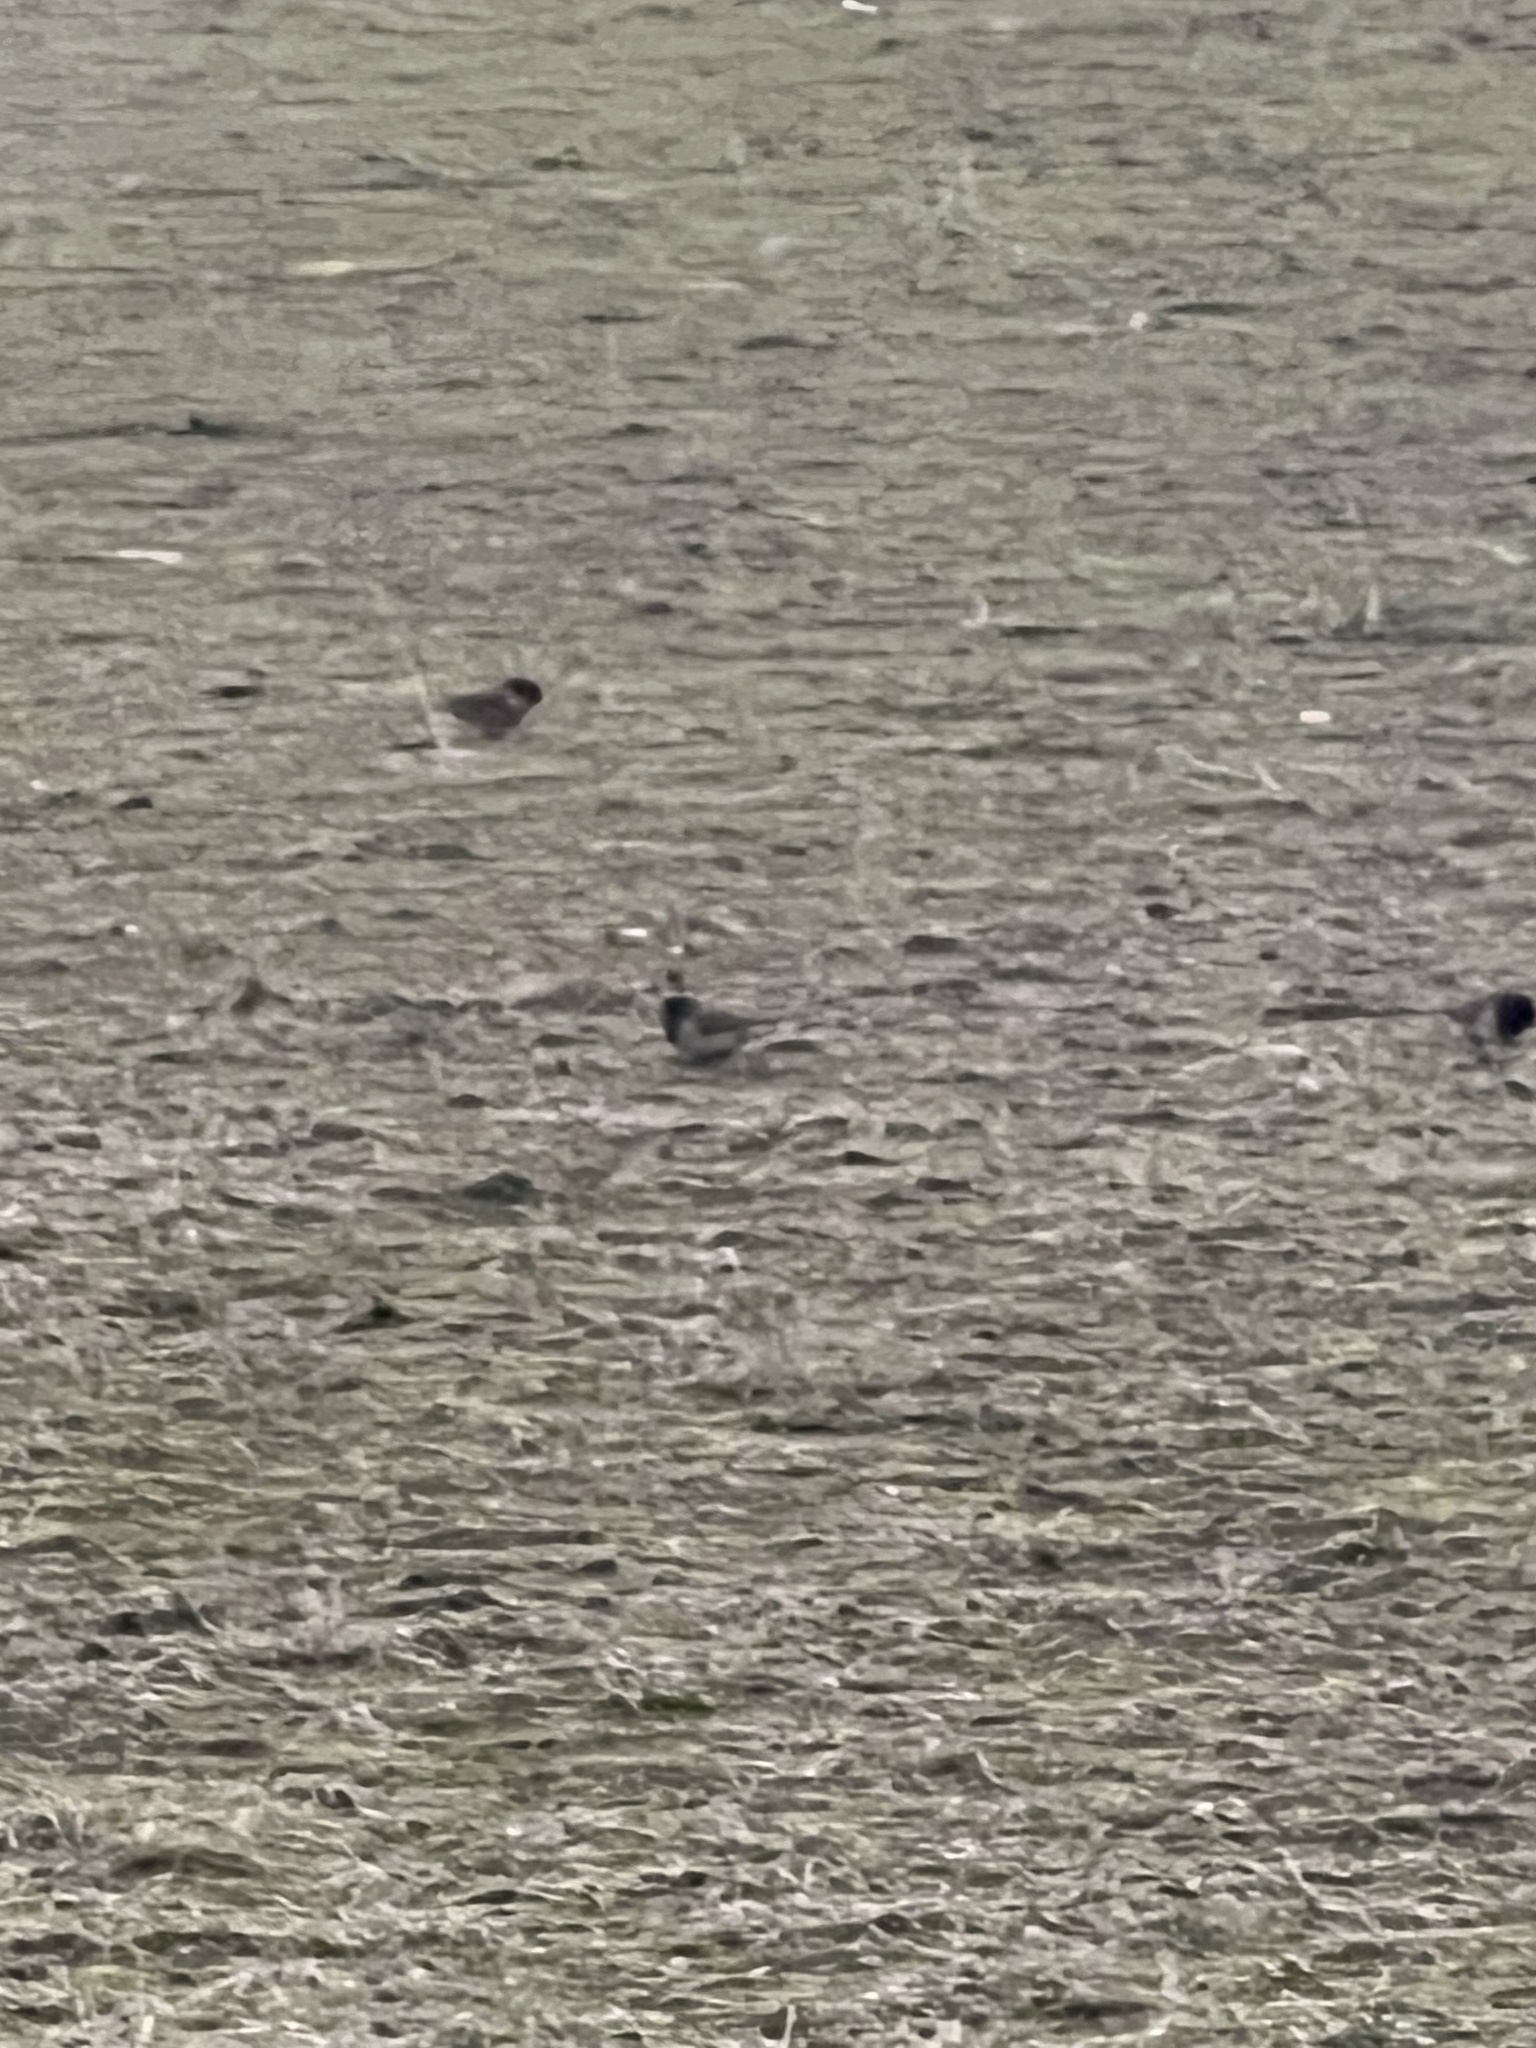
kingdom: Animalia
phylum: Chordata
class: Aves
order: Passeriformes
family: Passerellidae
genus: Junco
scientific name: Junco hyemalis
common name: Dark-eyed junco
